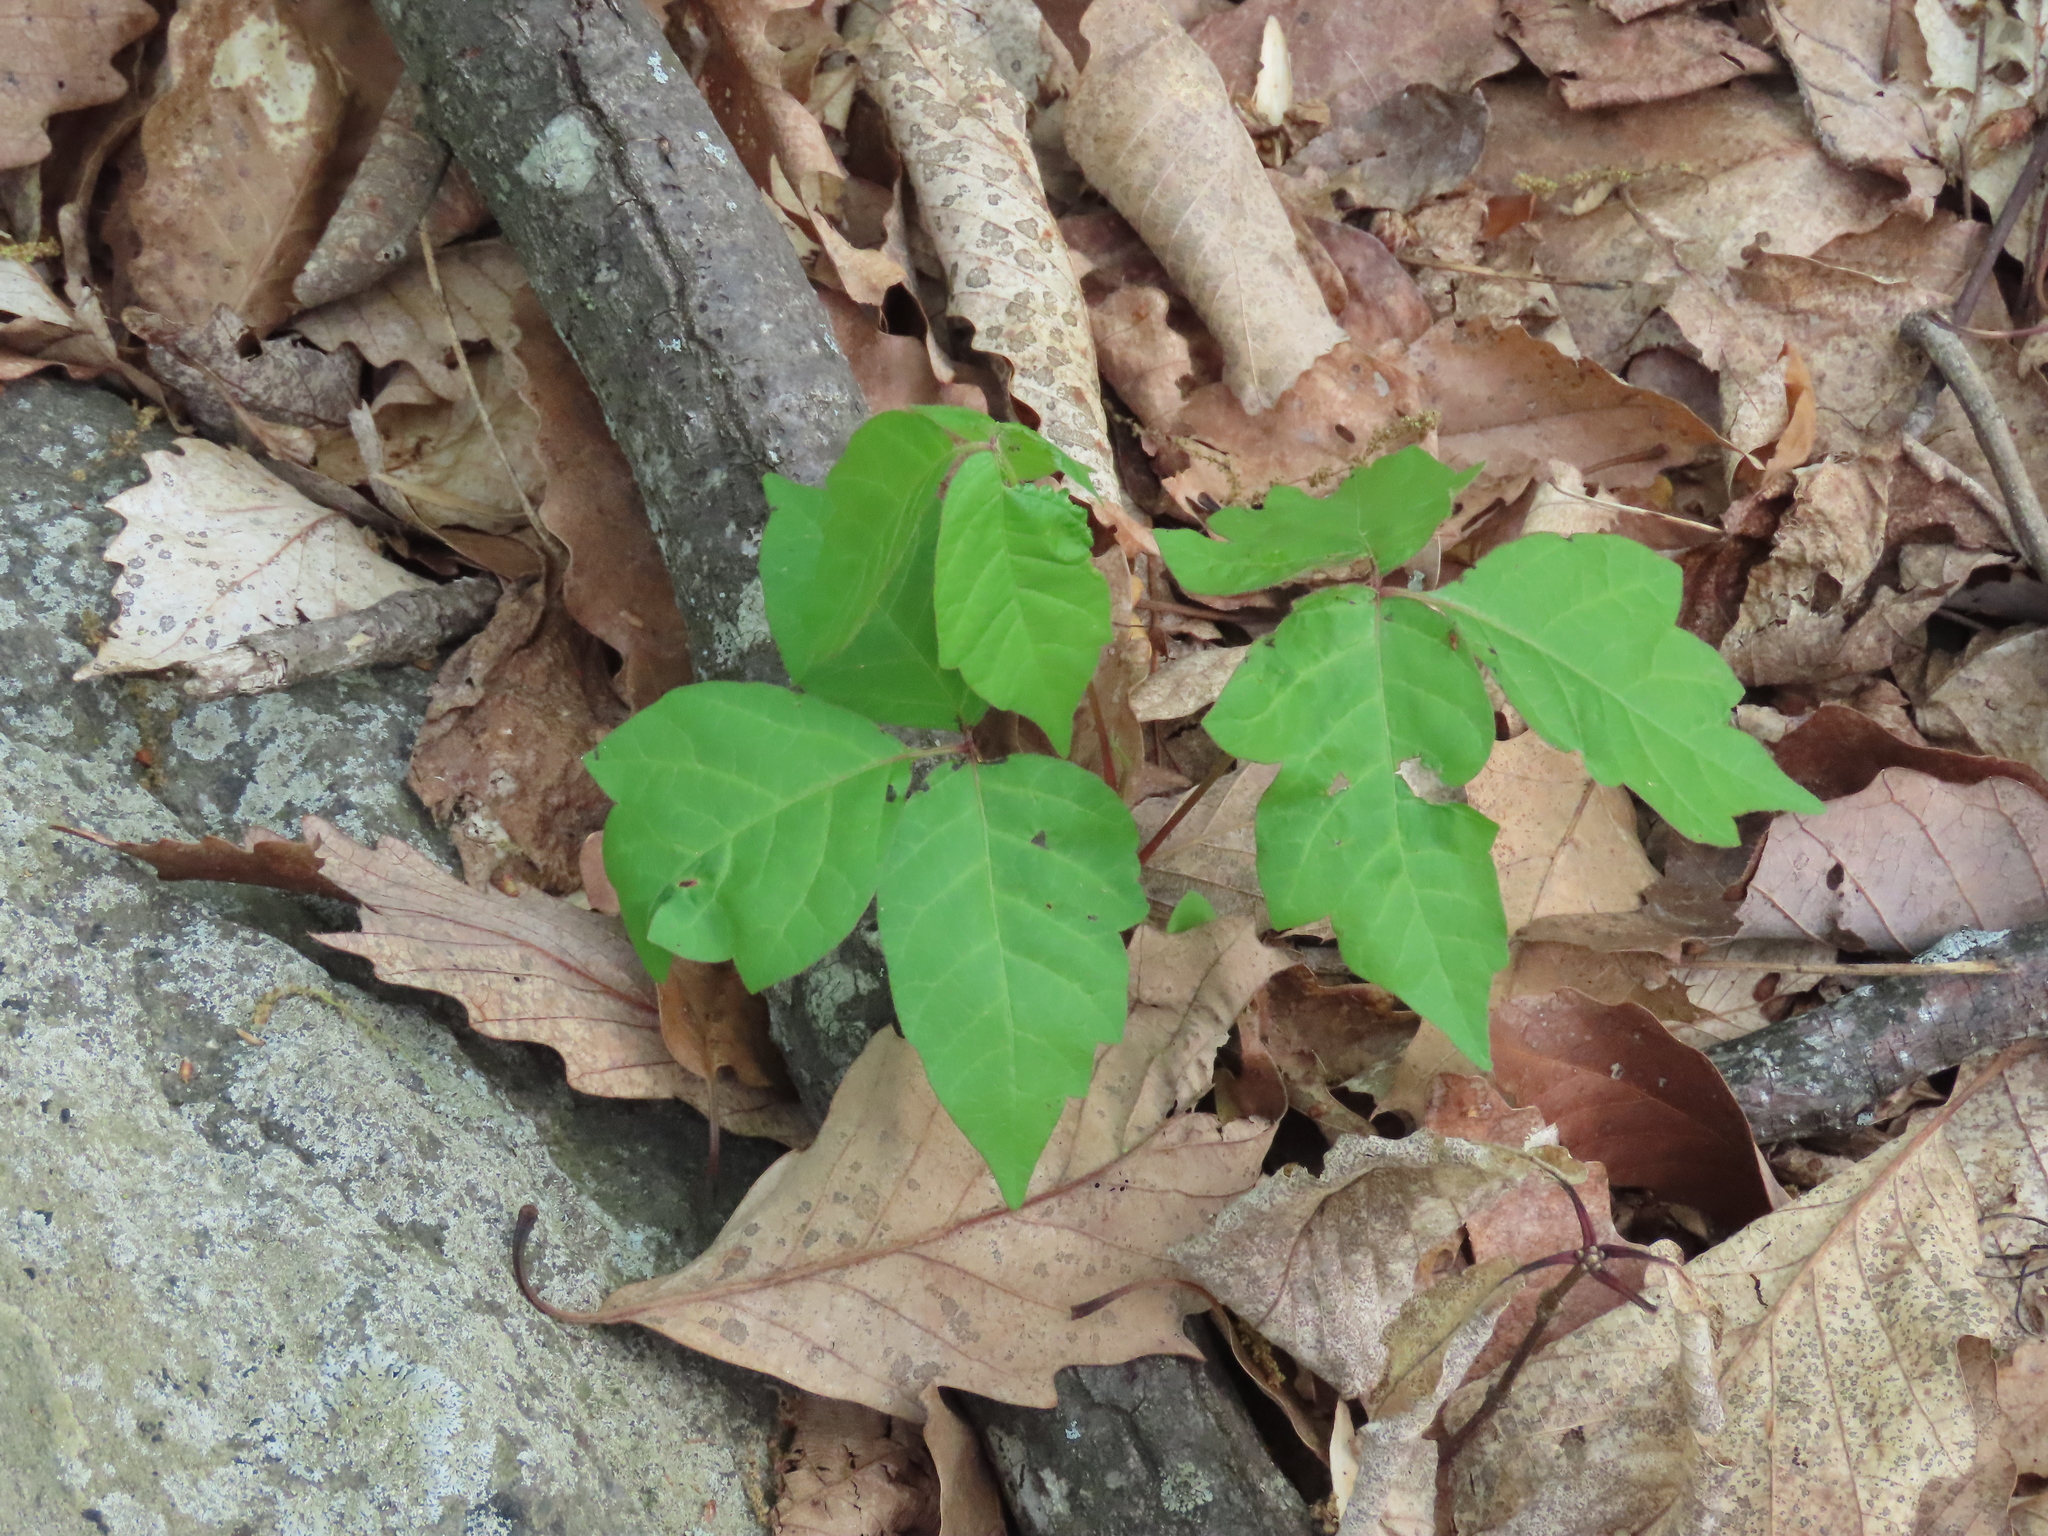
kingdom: Plantae
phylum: Tracheophyta
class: Magnoliopsida
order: Sapindales
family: Anacardiaceae
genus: Toxicodendron
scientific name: Toxicodendron radicans
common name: Poison ivy
